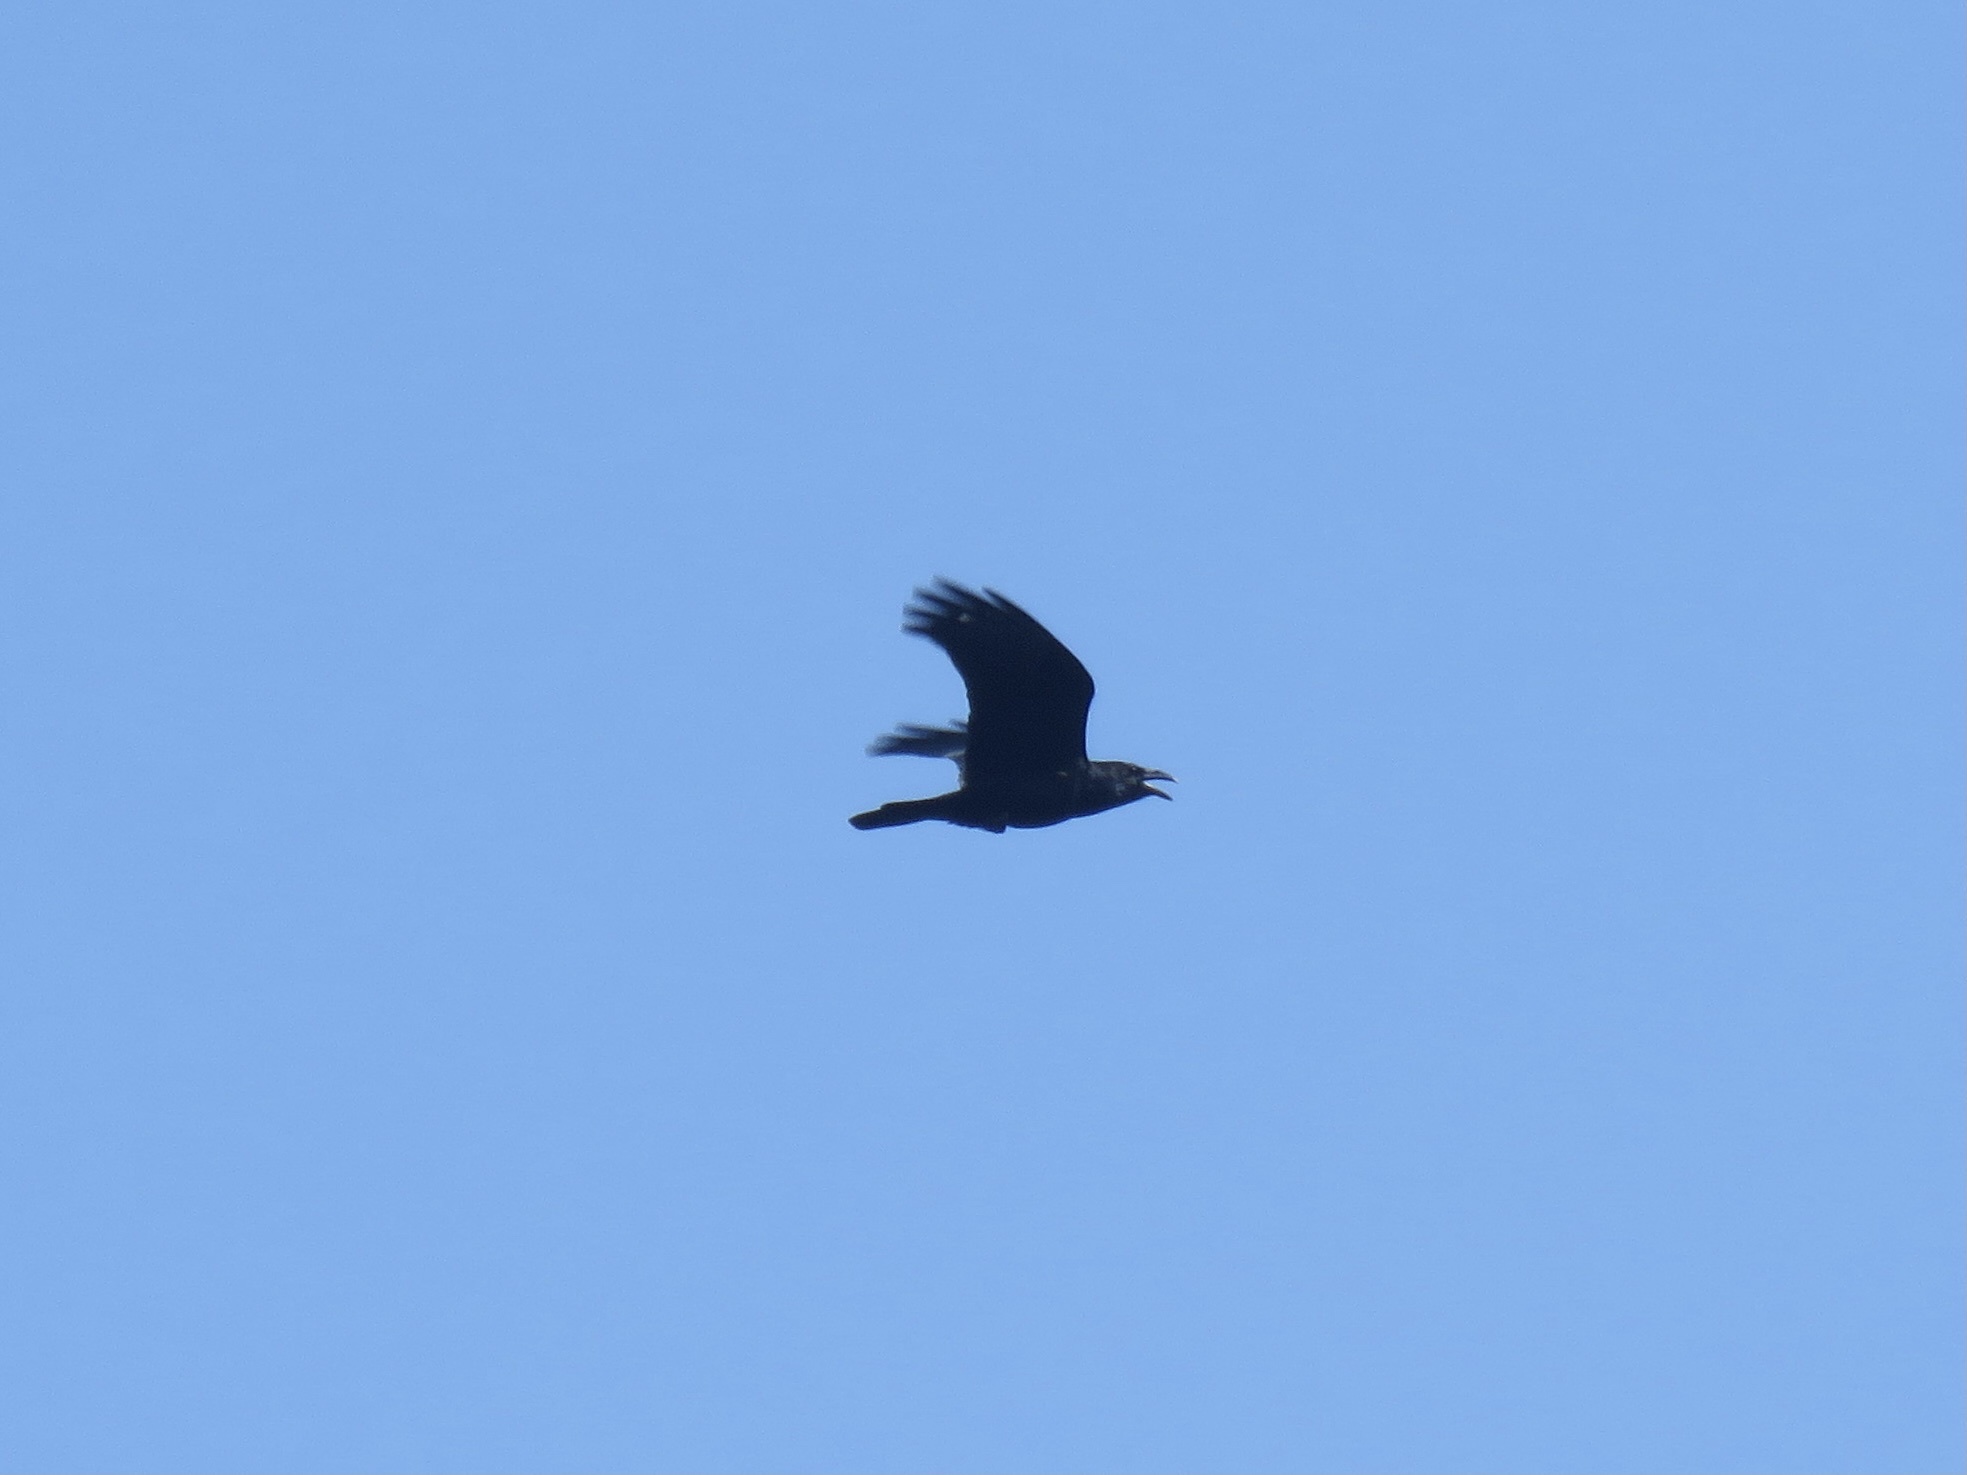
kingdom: Animalia
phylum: Chordata
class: Aves
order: Passeriformes
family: Corvidae
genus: Corvus
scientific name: Corvus corax
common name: Common raven
